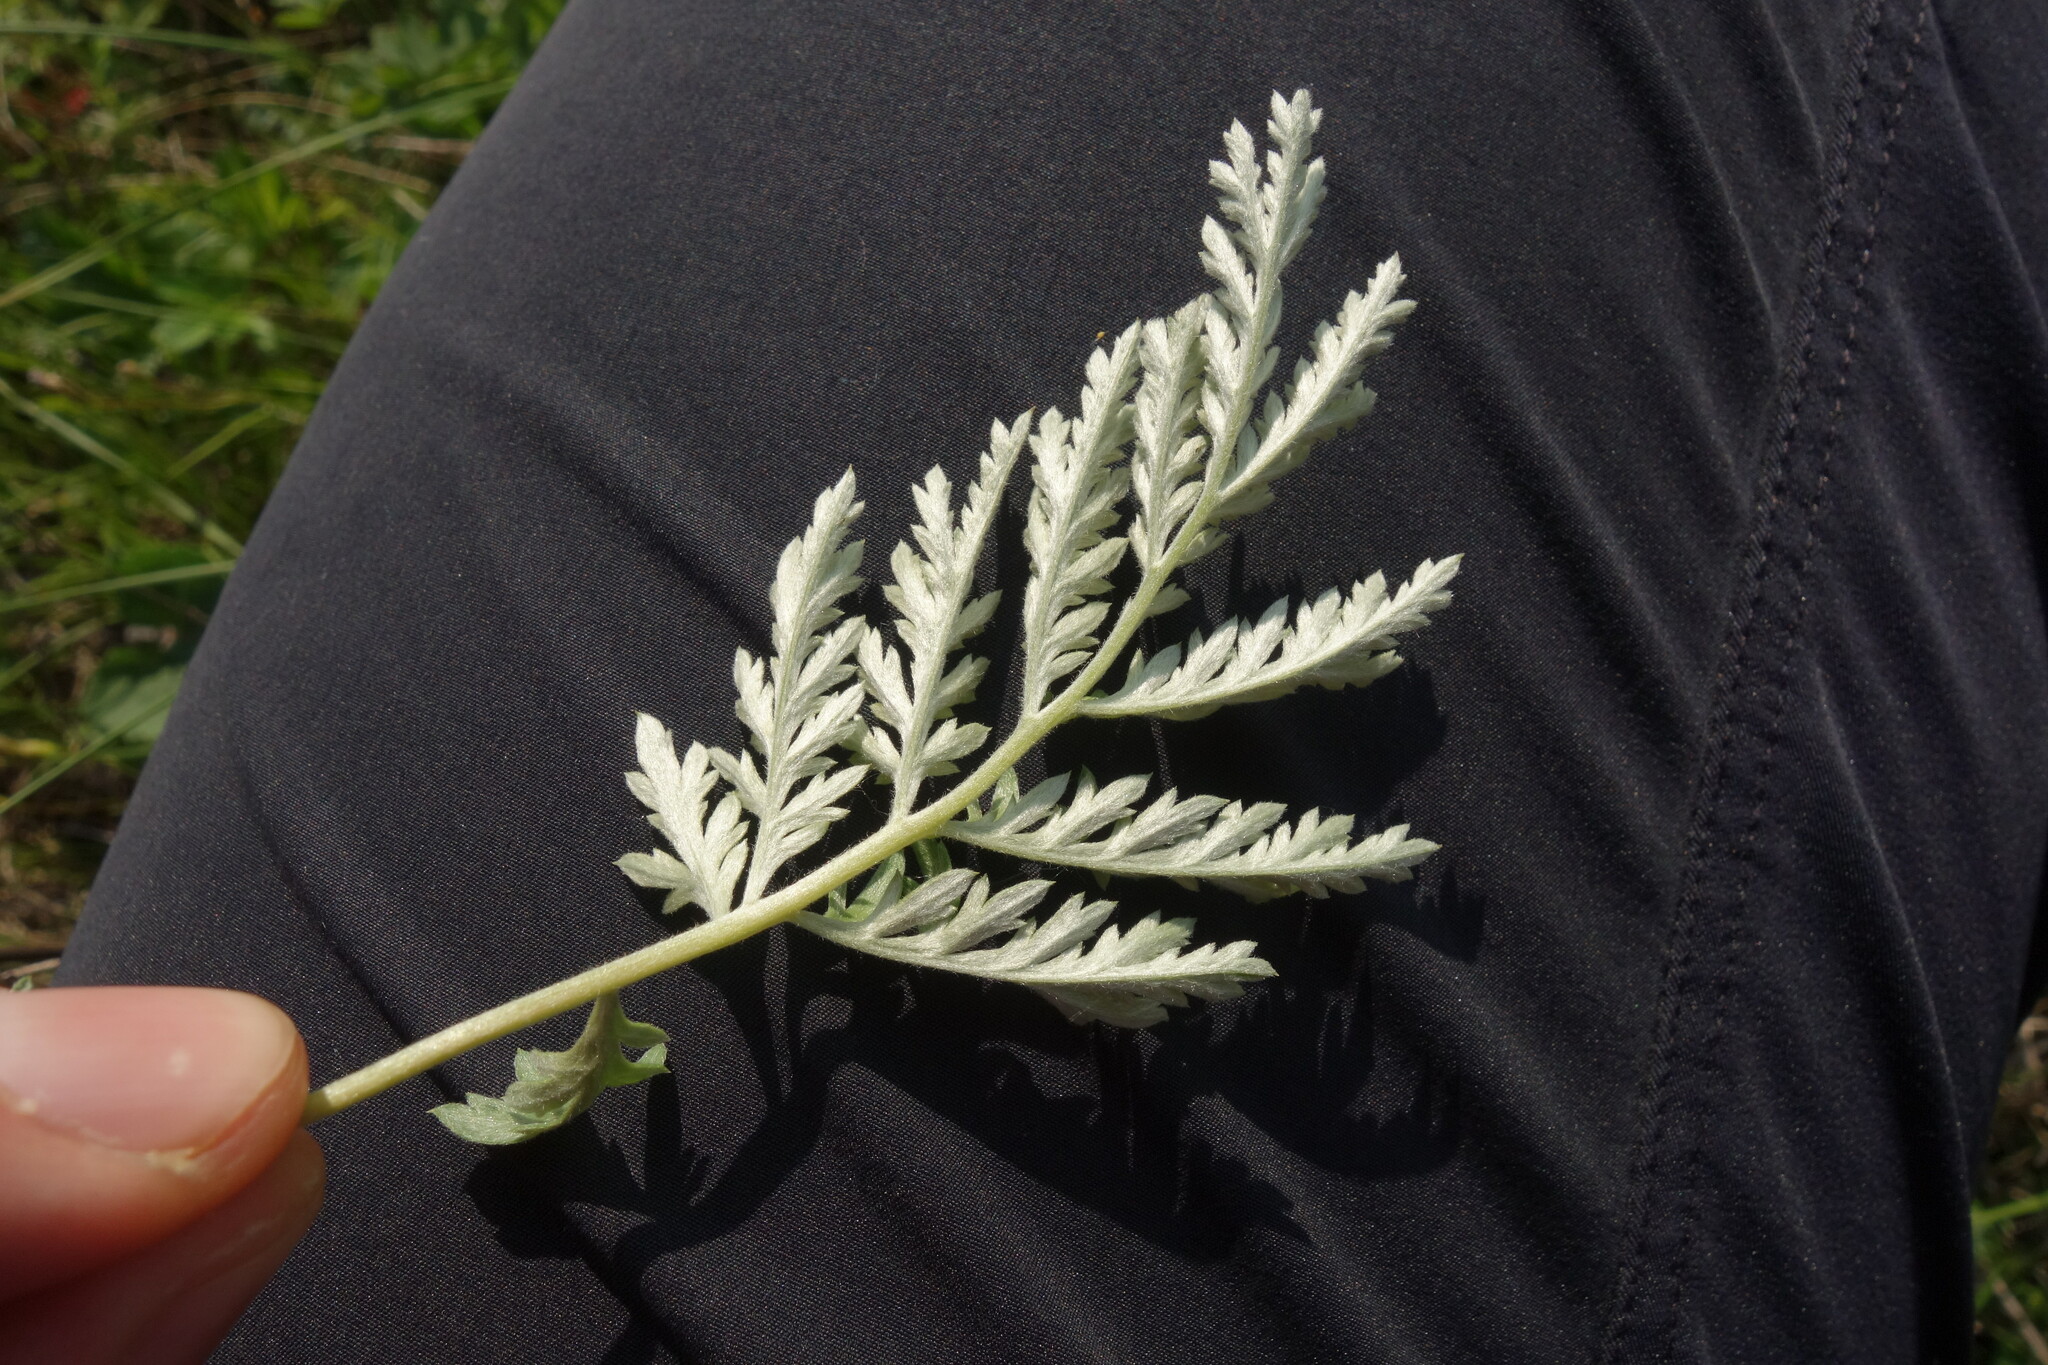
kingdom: Plantae
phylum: Tracheophyta
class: Magnoliopsida
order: Asterales
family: Asteraceae
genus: Artemisia
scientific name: Artemisia armeniaca
